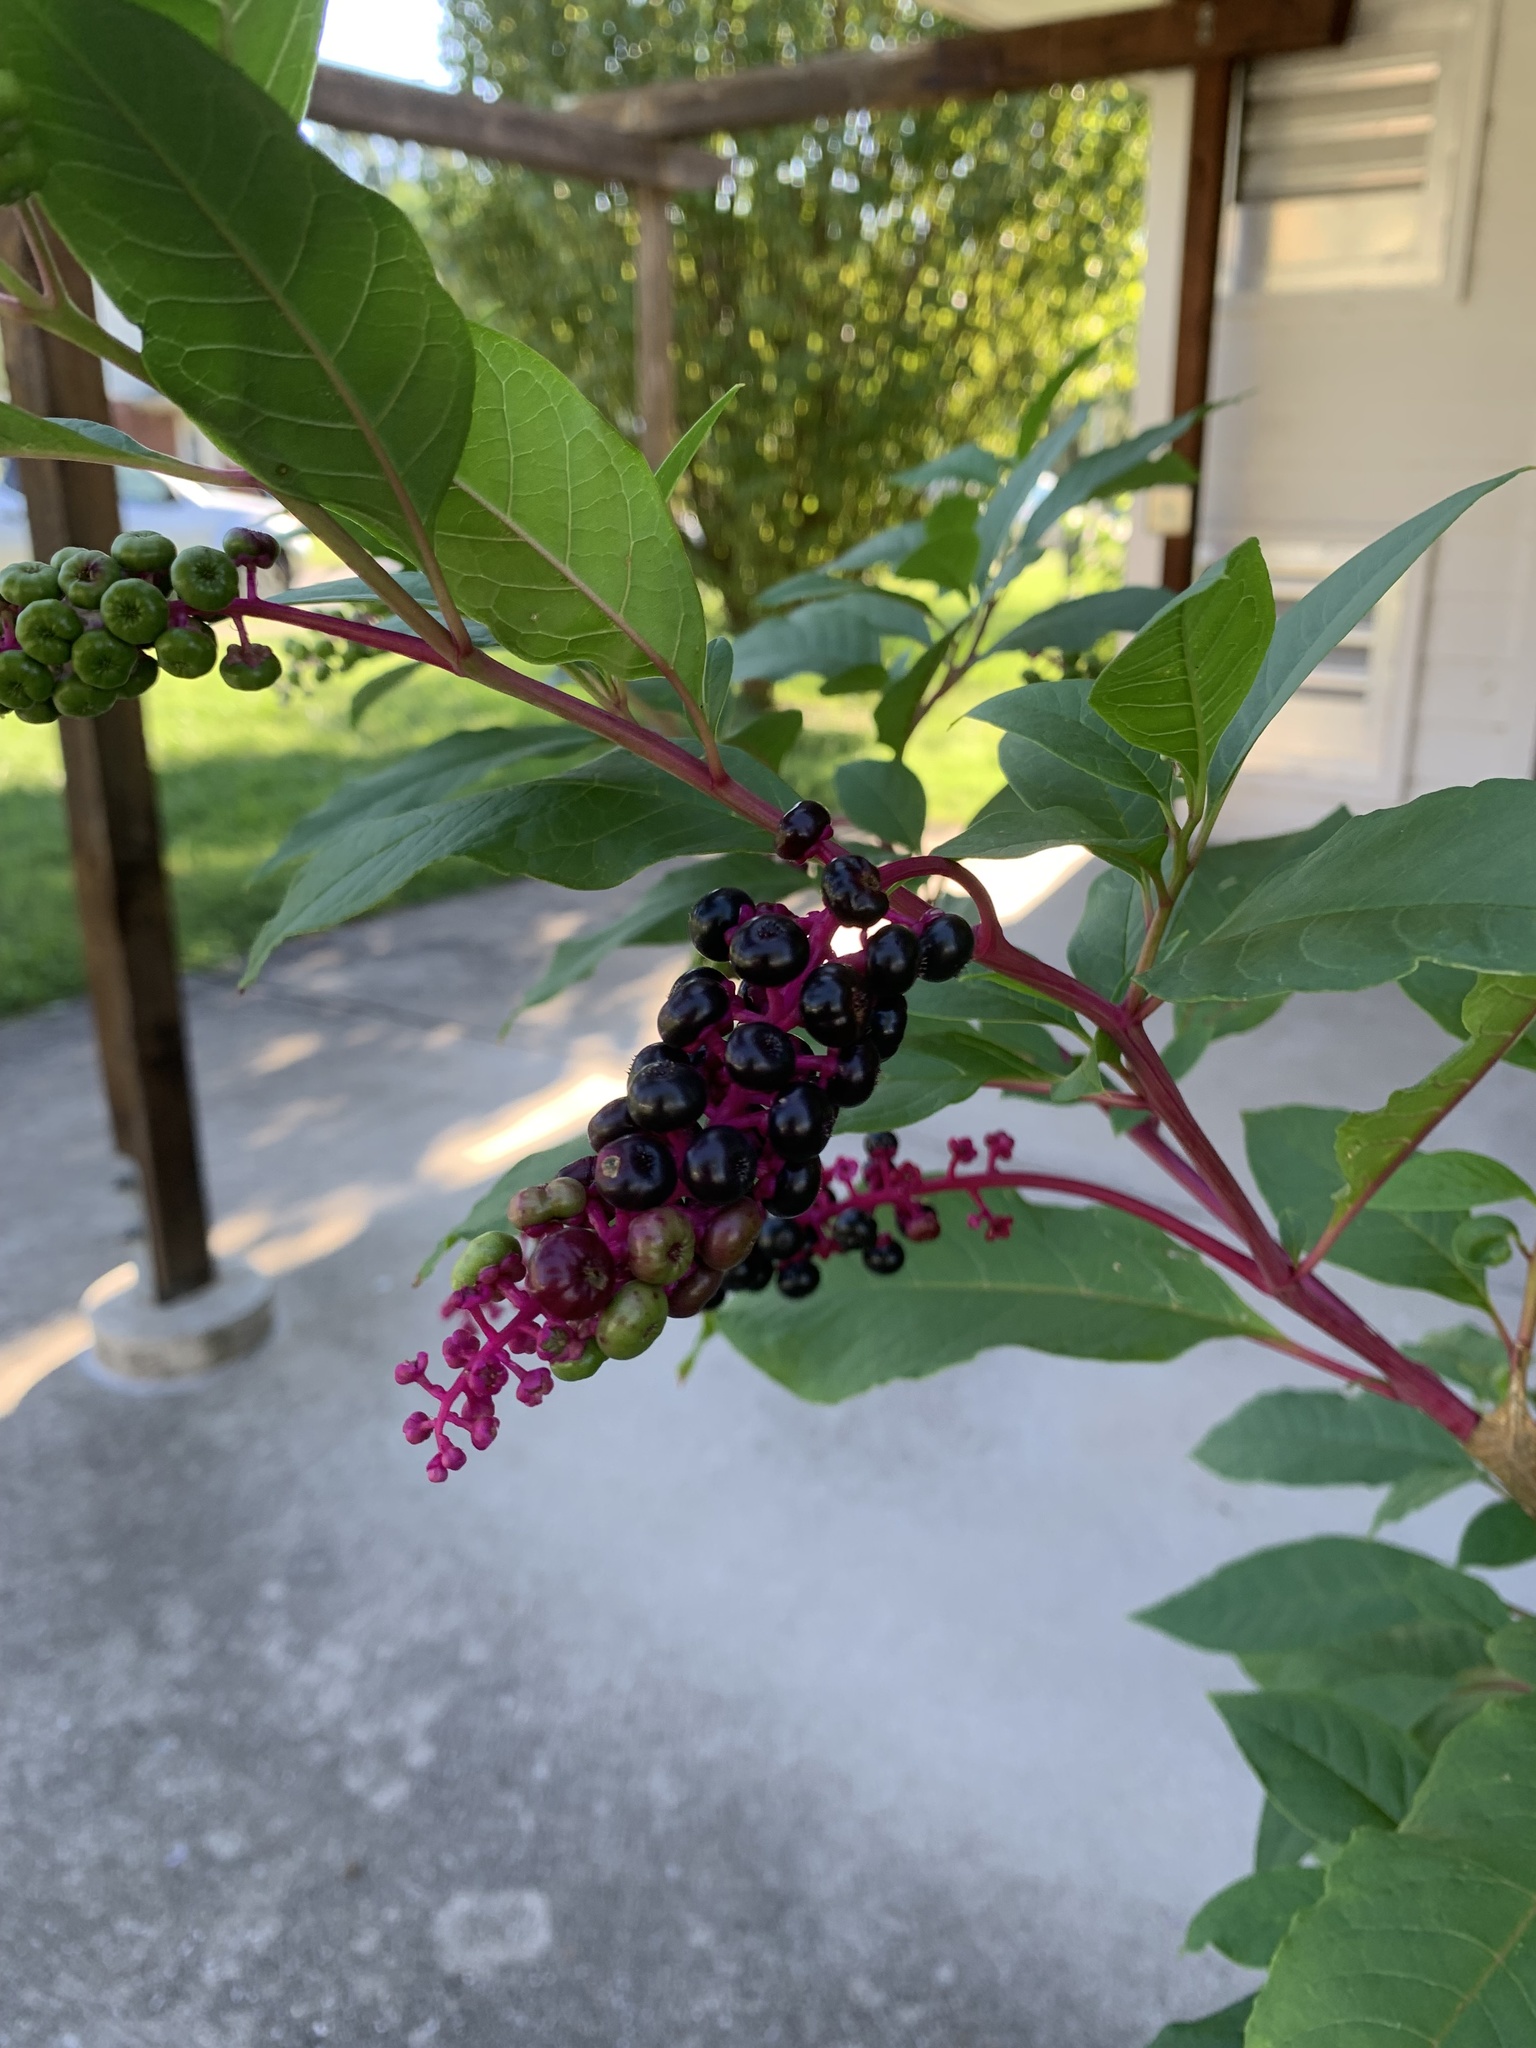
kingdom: Plantae
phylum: Tracheophyta
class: Magnoliopsida
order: Caryophyllales
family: Phytolaccaceae
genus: Phytolacca
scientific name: Phytolacca americana
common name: American pokeweed
